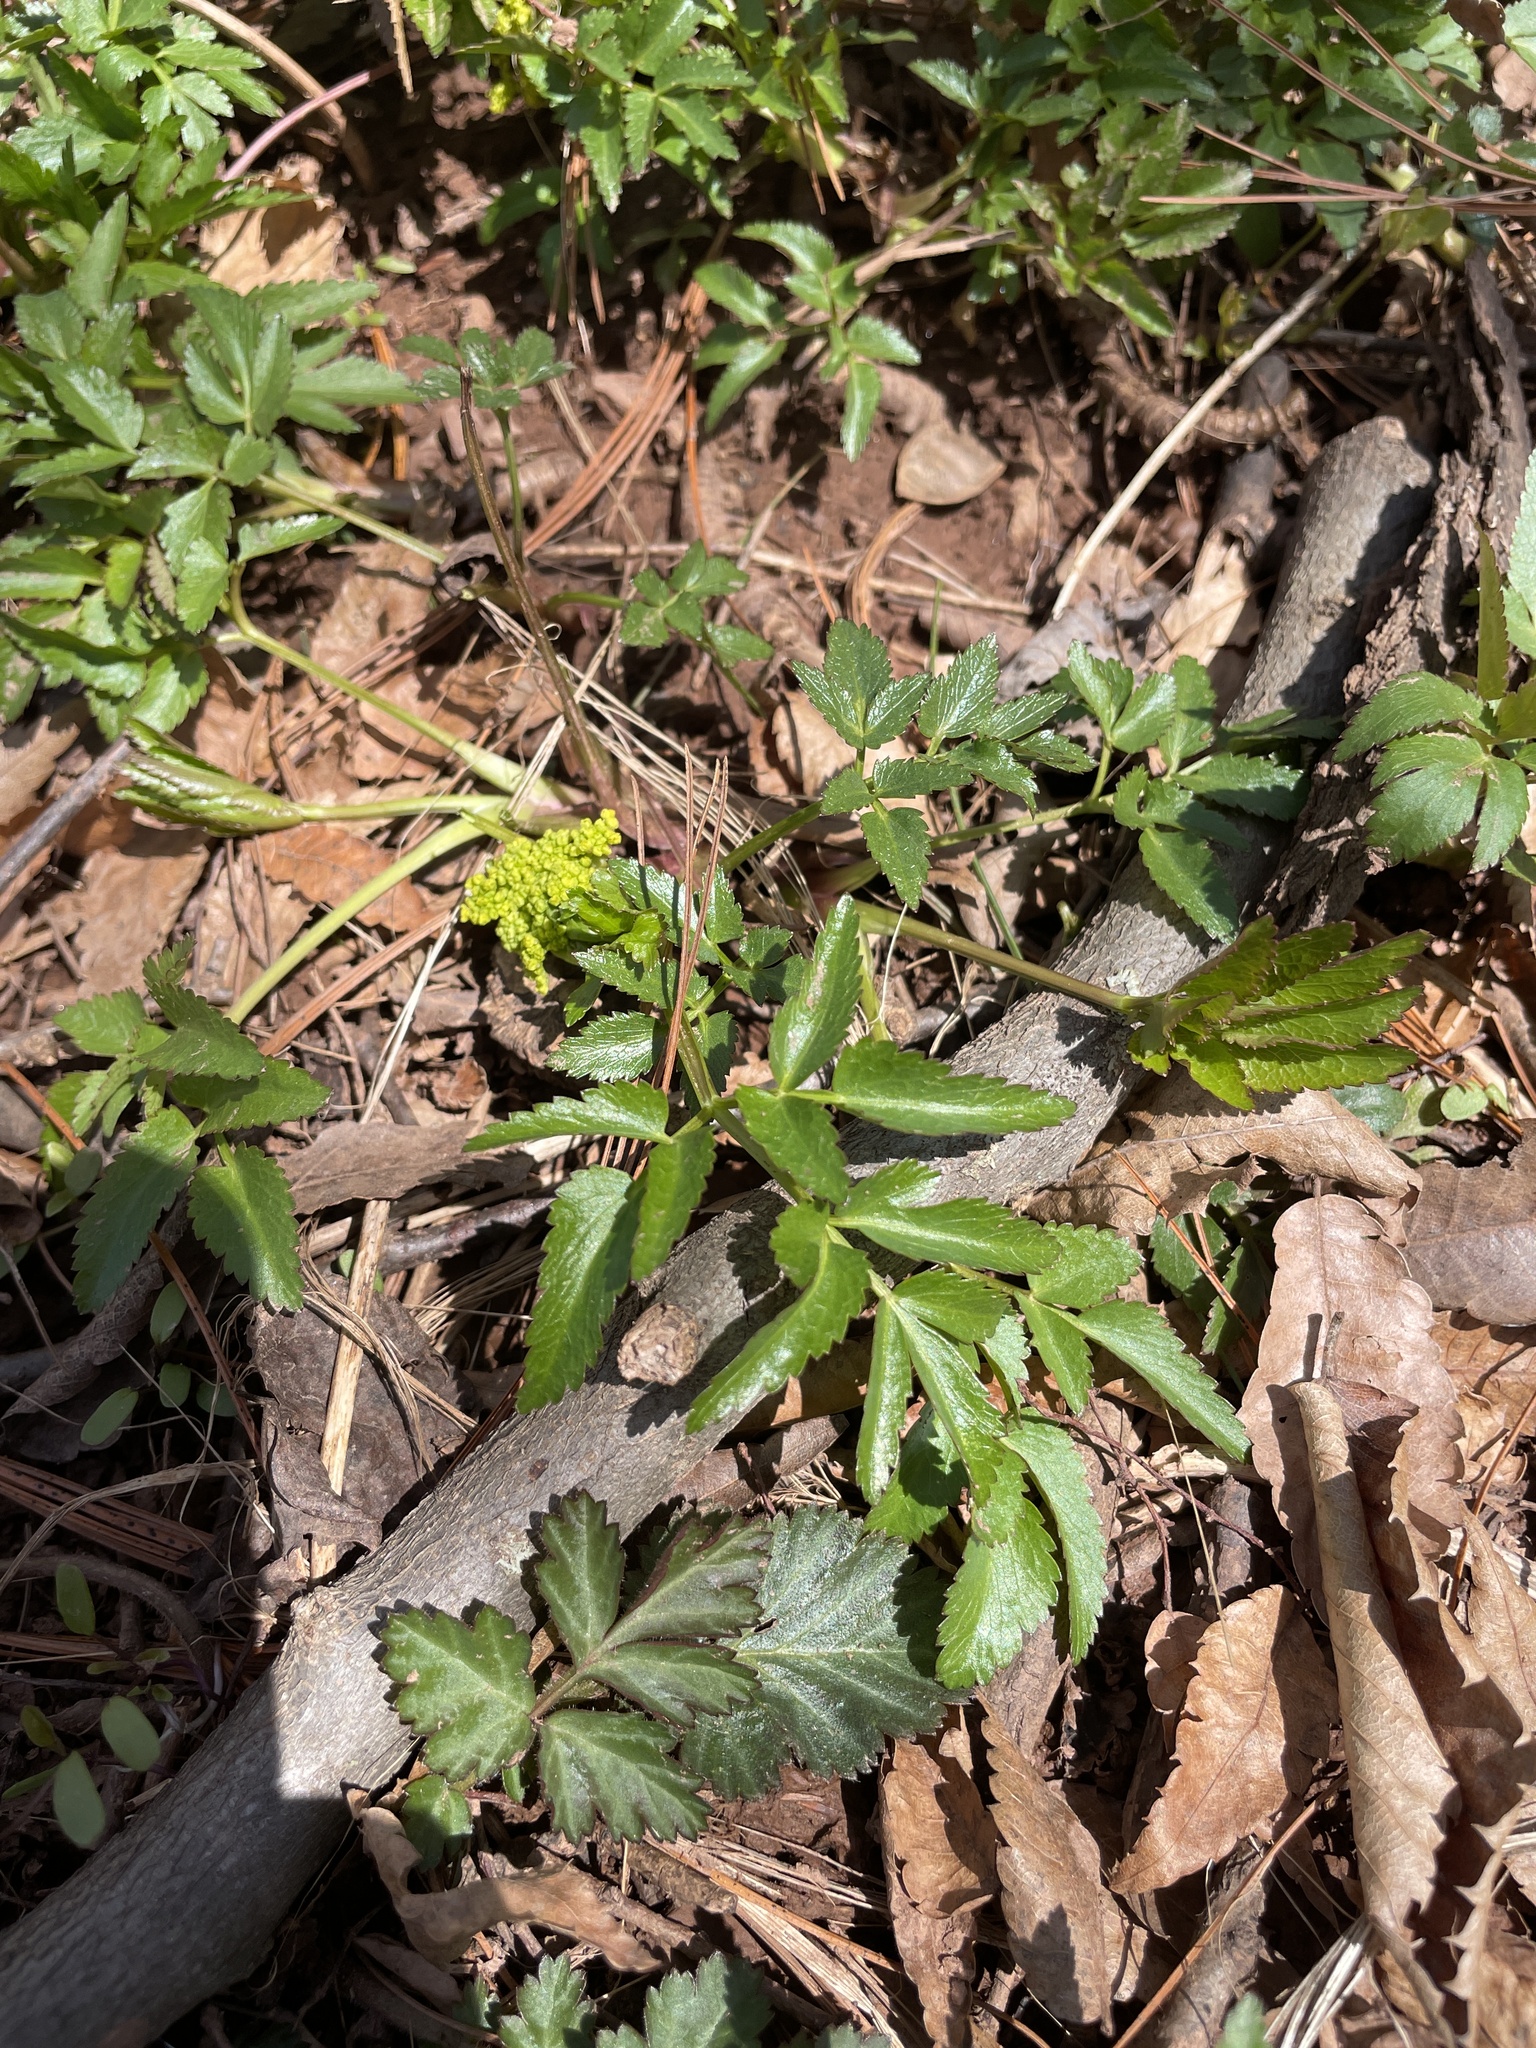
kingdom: Plantae
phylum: Tracheophyta
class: Magnoliopsida
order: Apiales
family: Apiaceae
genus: Zizia
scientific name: Zizia aurea
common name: Golden alexanders
